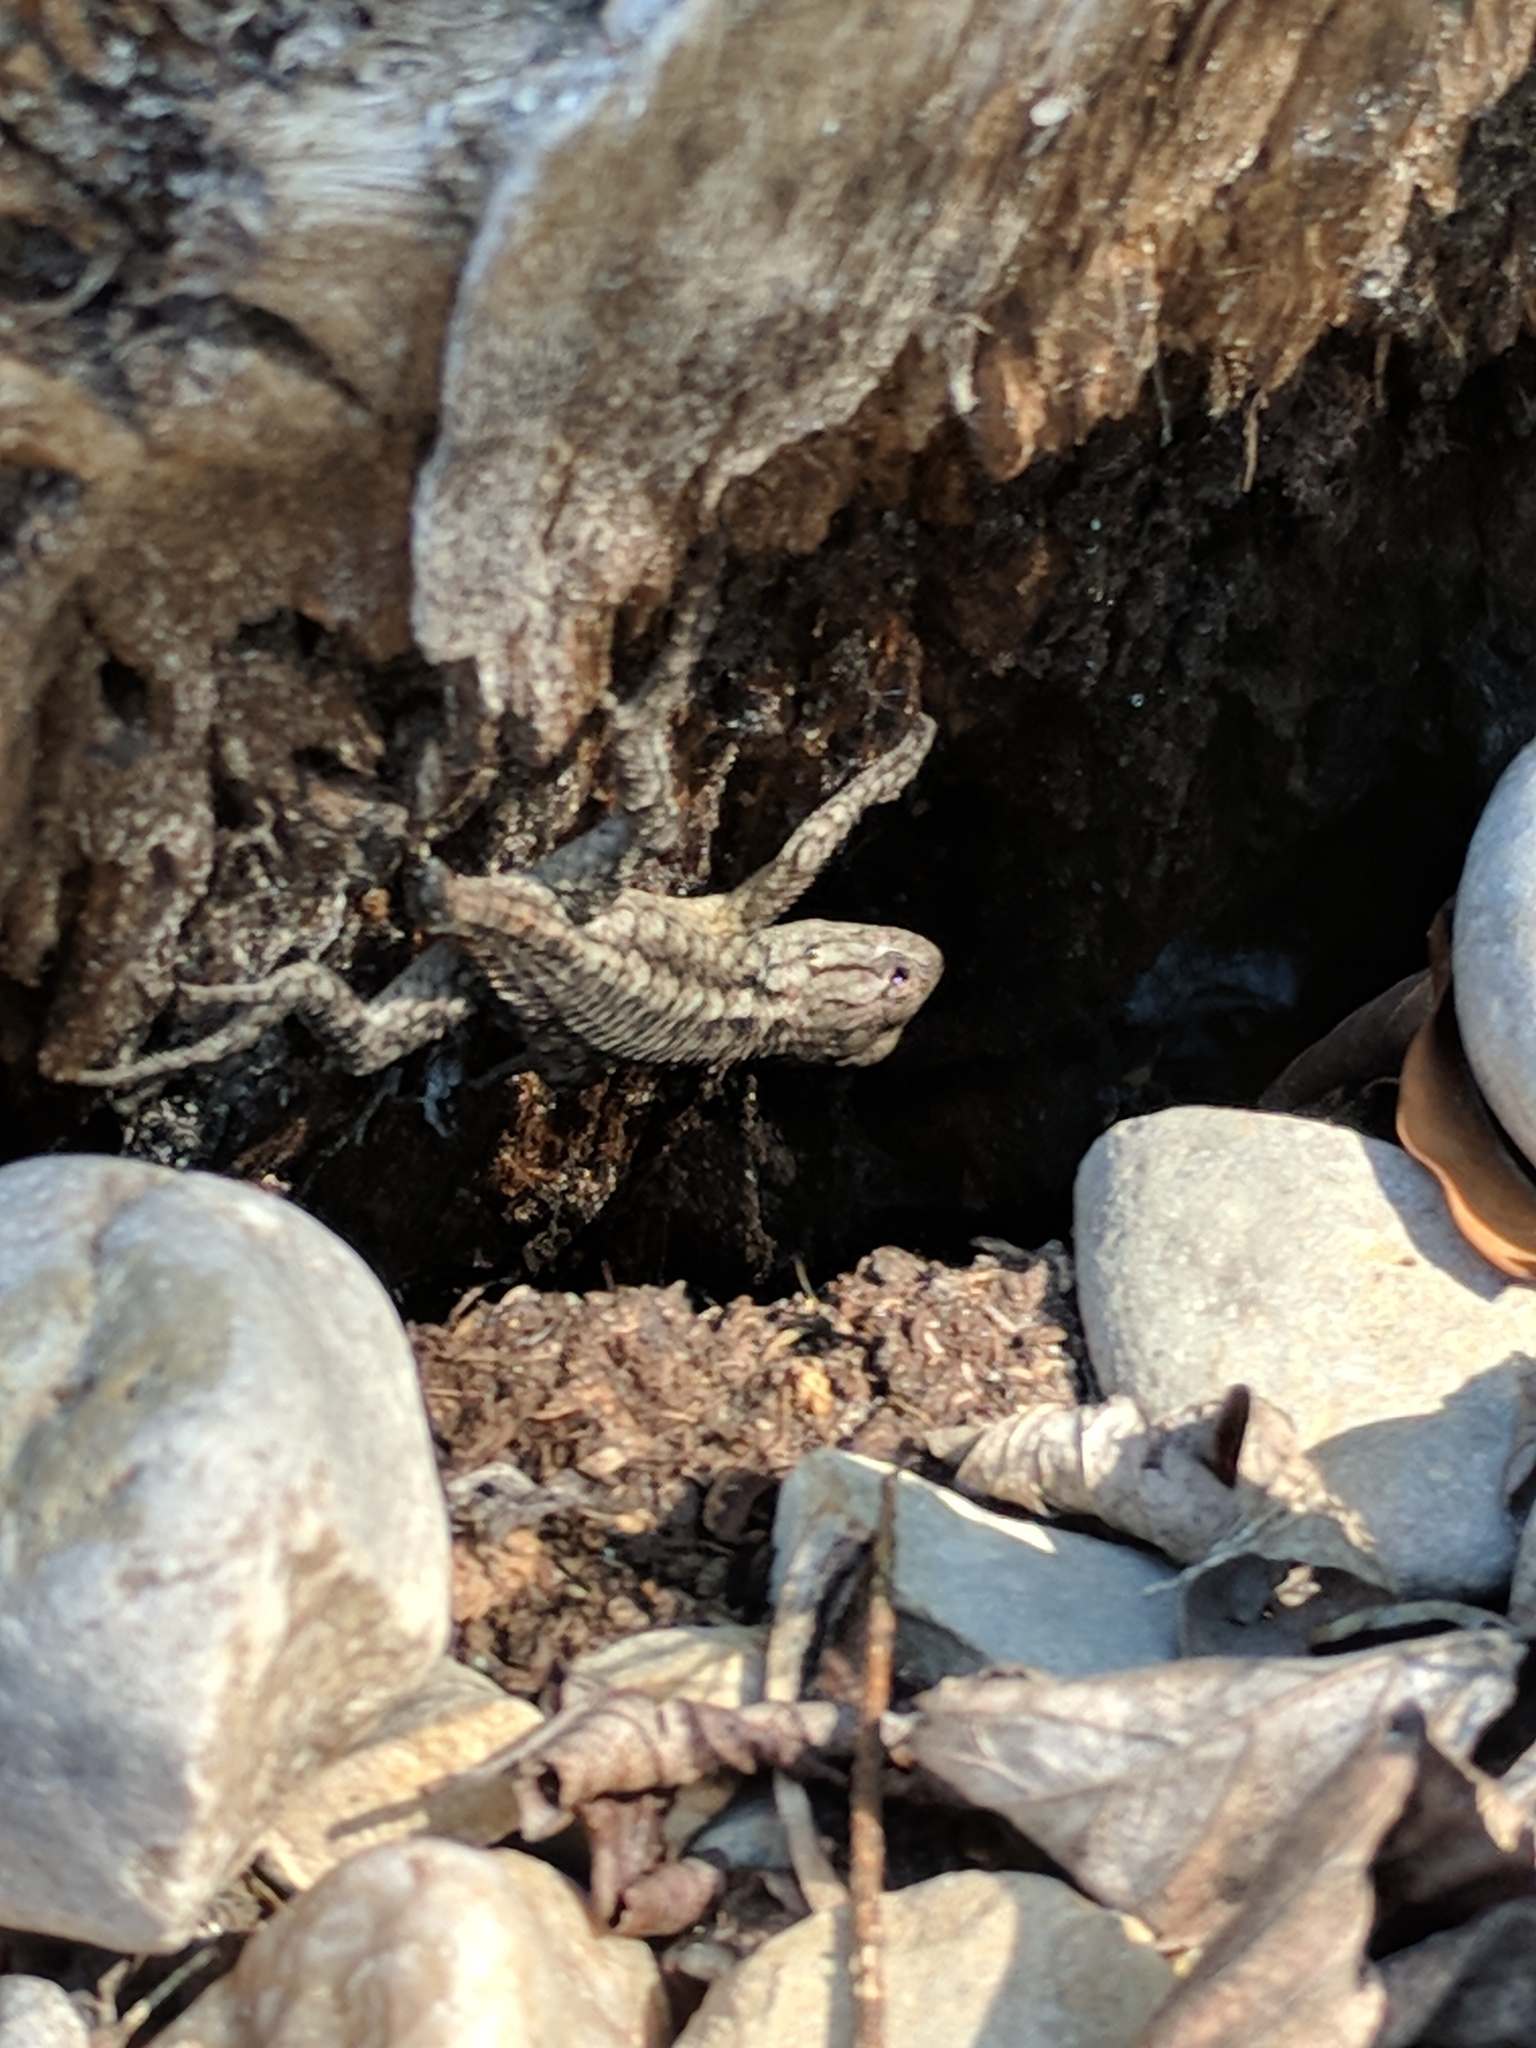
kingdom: Animalia
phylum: Chordata
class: Squamata
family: Phrynosomatidae
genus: Sceloporus
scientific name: Sceloporus olivaceus
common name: Texas spiny lizard
